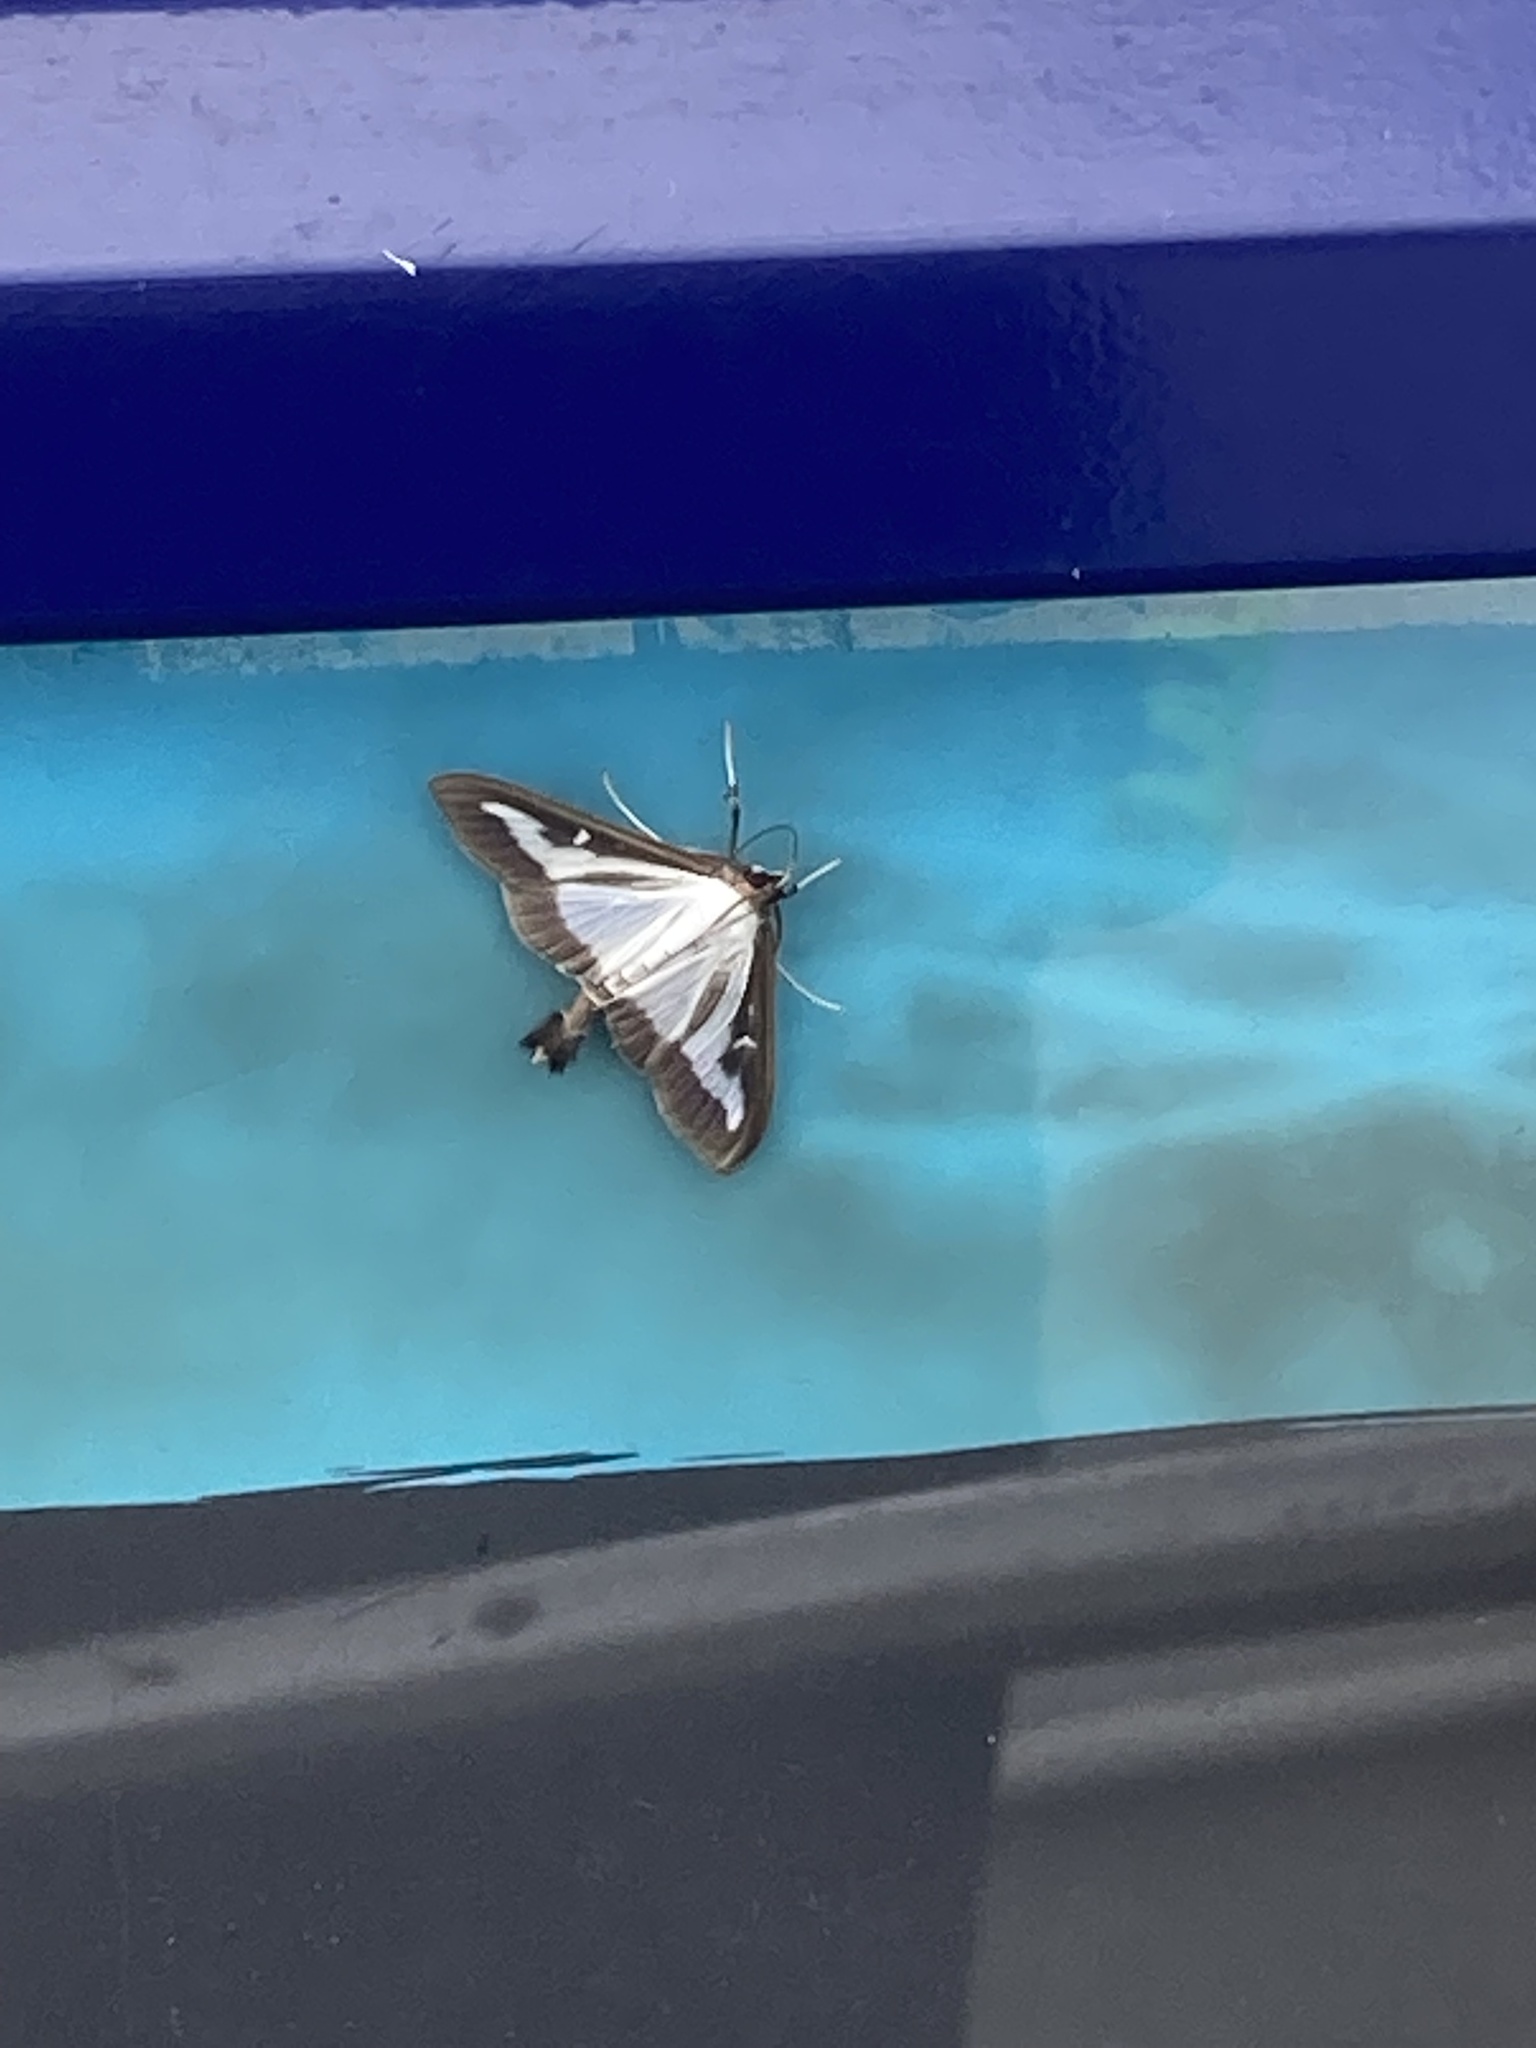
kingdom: Animalia
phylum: Arthropoda
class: Insecta
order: Lepidoptera
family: Crambidae
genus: Cydalima
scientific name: Cydalima perspectalis
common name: Box tree moth
